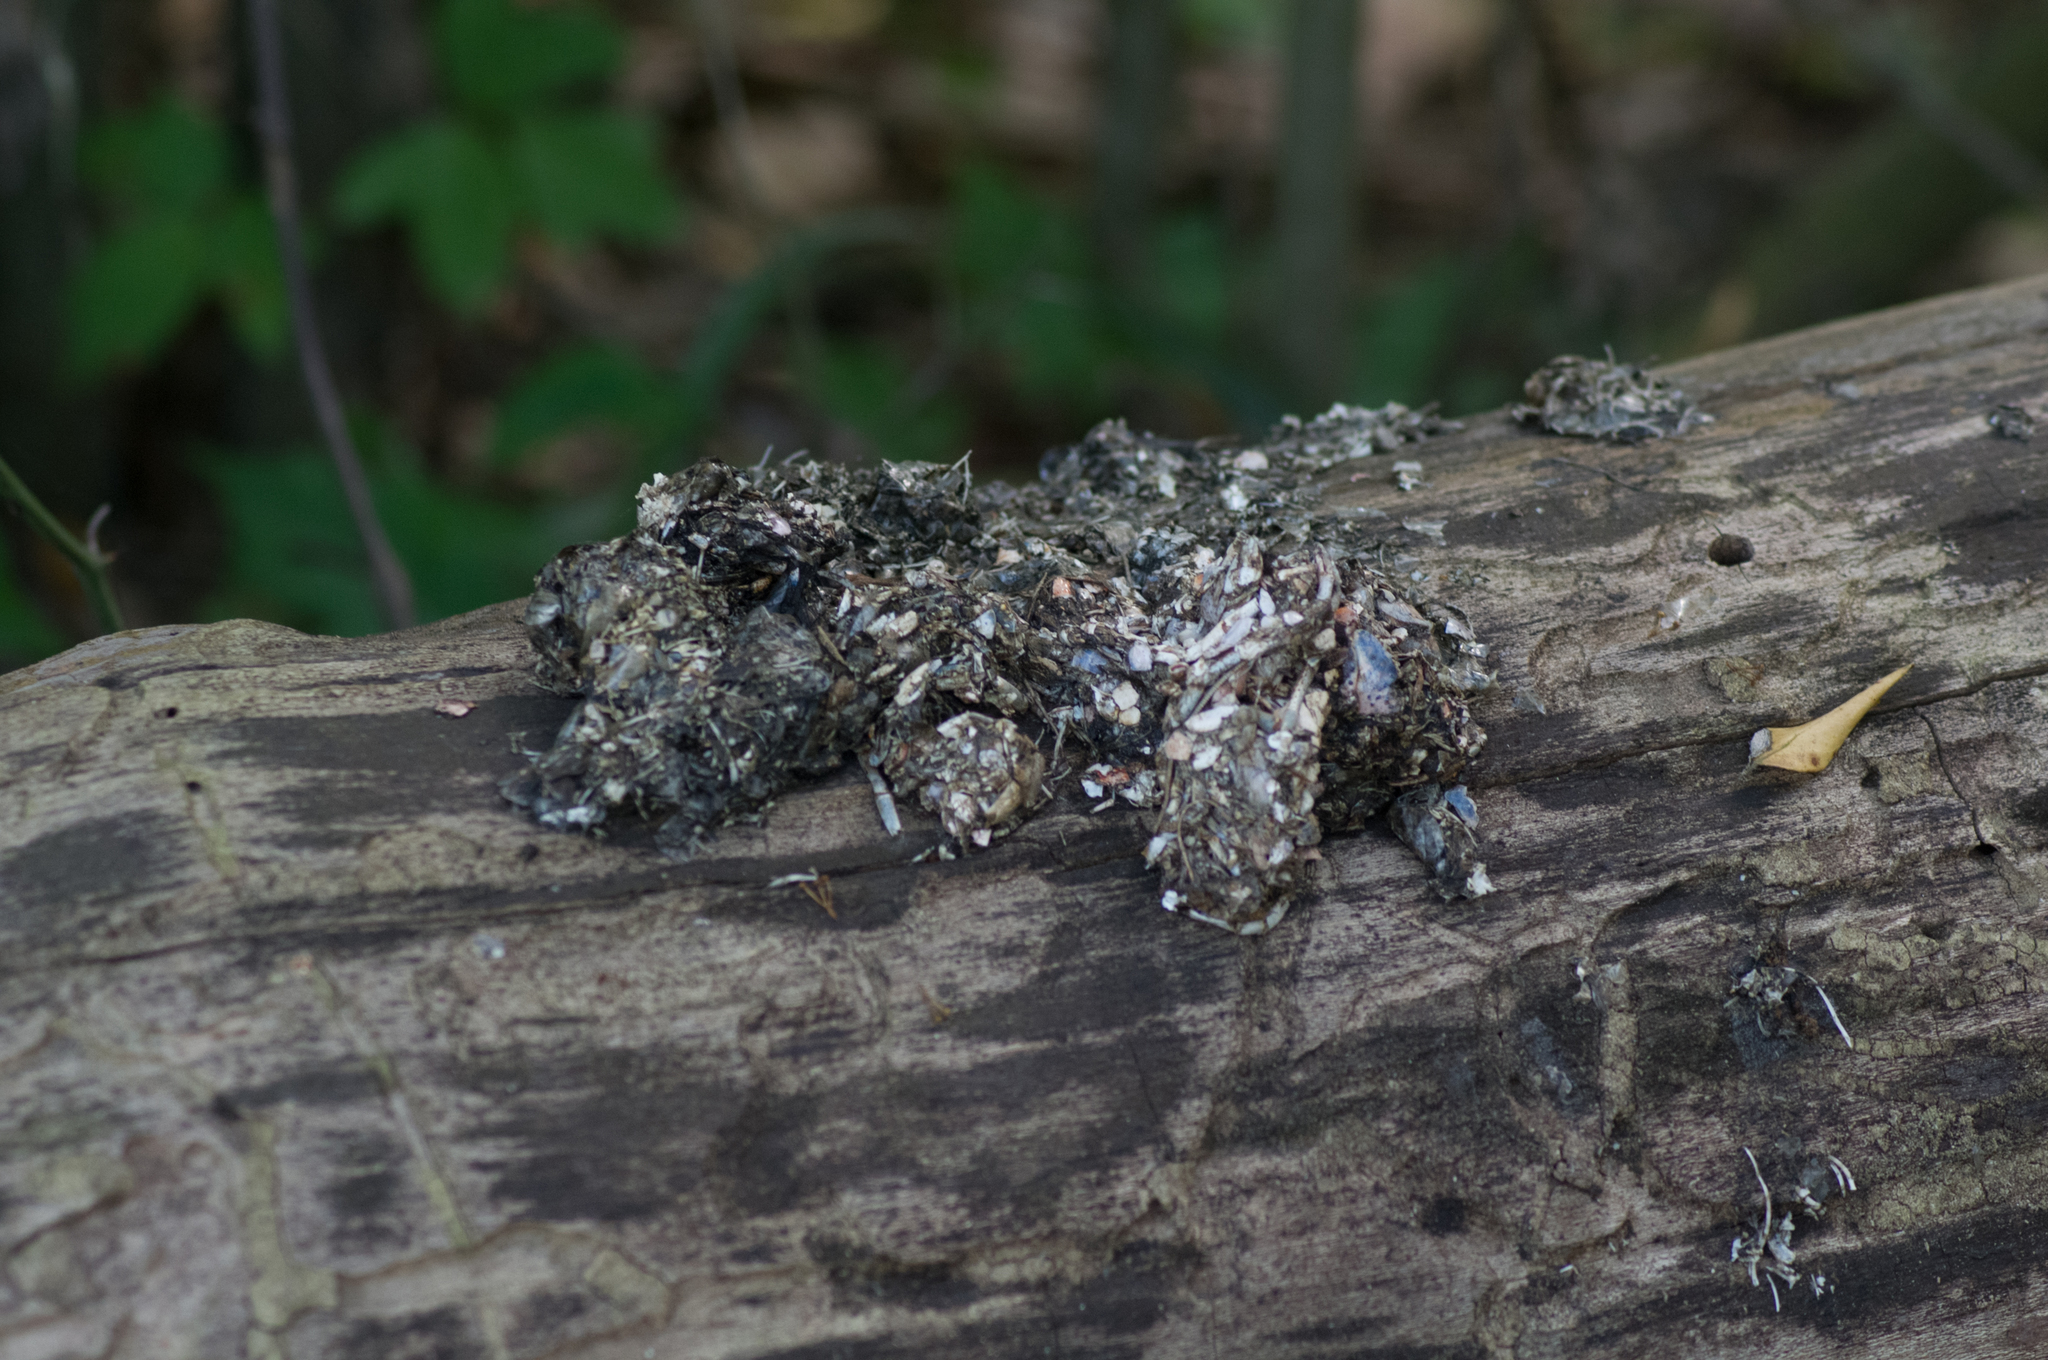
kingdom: Animalia
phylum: Chordata
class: Mammalia
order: Carnivora
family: Mustelidae
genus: Lontra
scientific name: Lontra canadensis
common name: North american river otter
